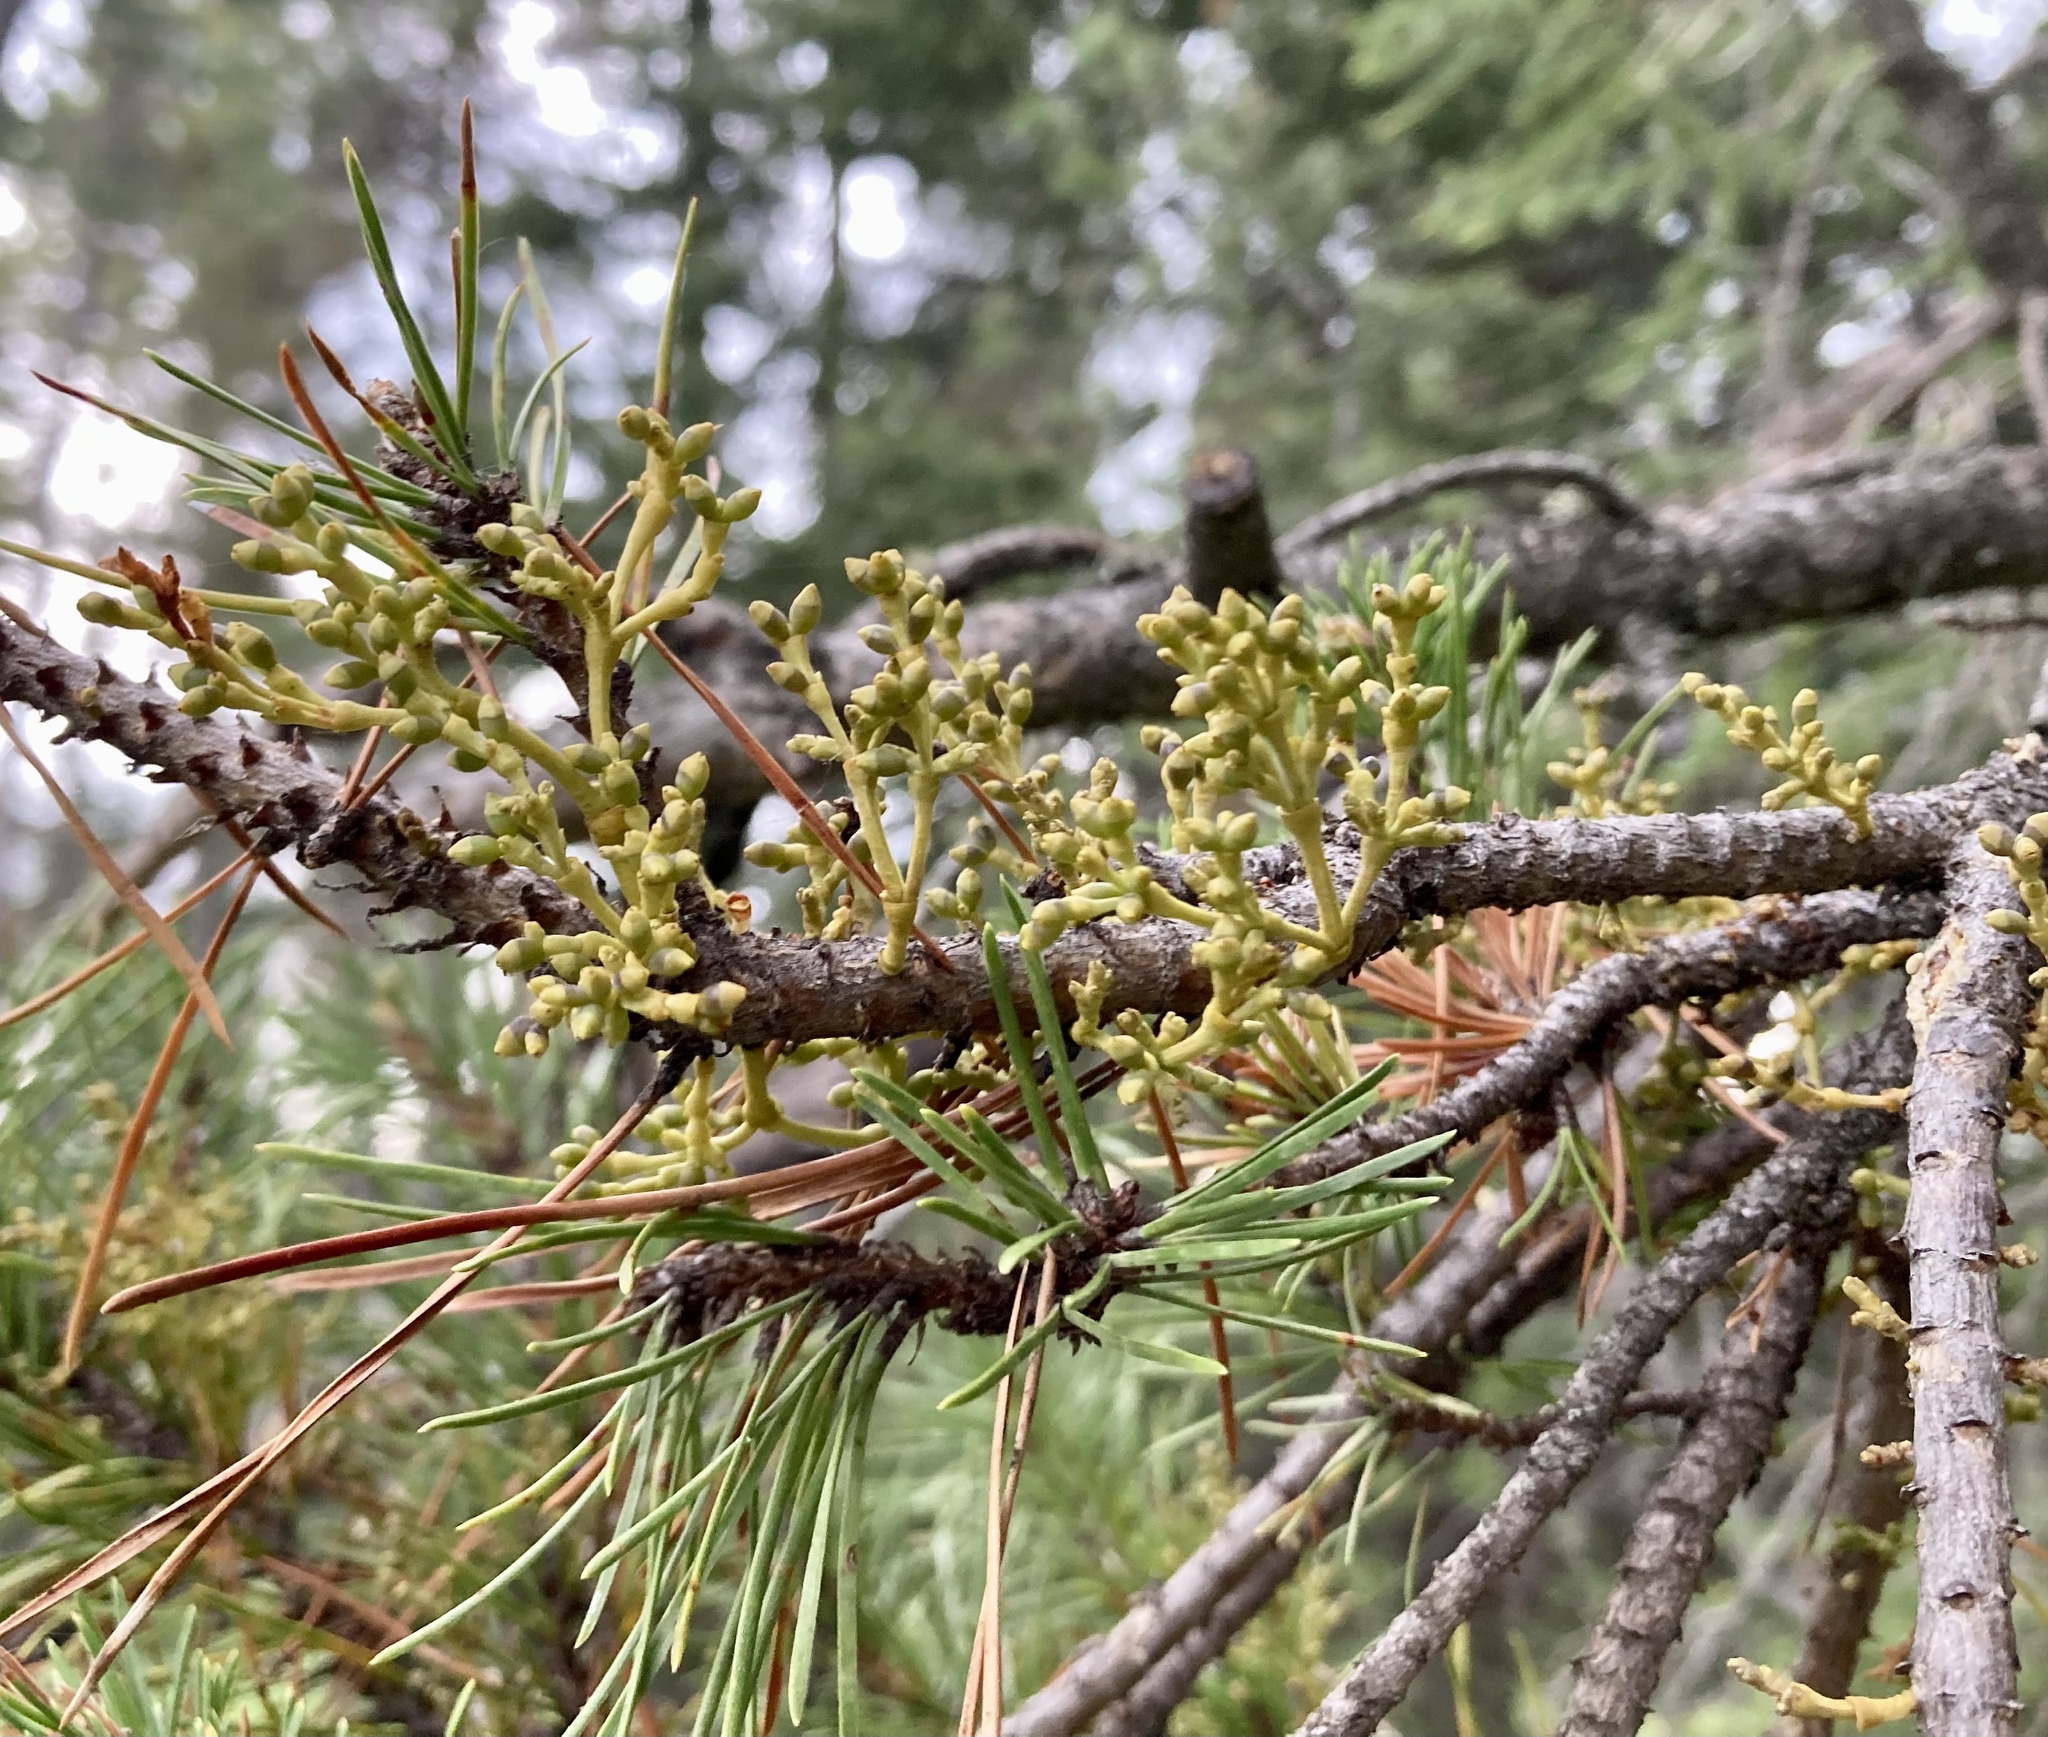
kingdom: Plantae
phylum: Tracheophyta
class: Magnoliopsida
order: Santalales
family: Viscaceae
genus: Arceuthobium
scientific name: Arceuthobium americanum
